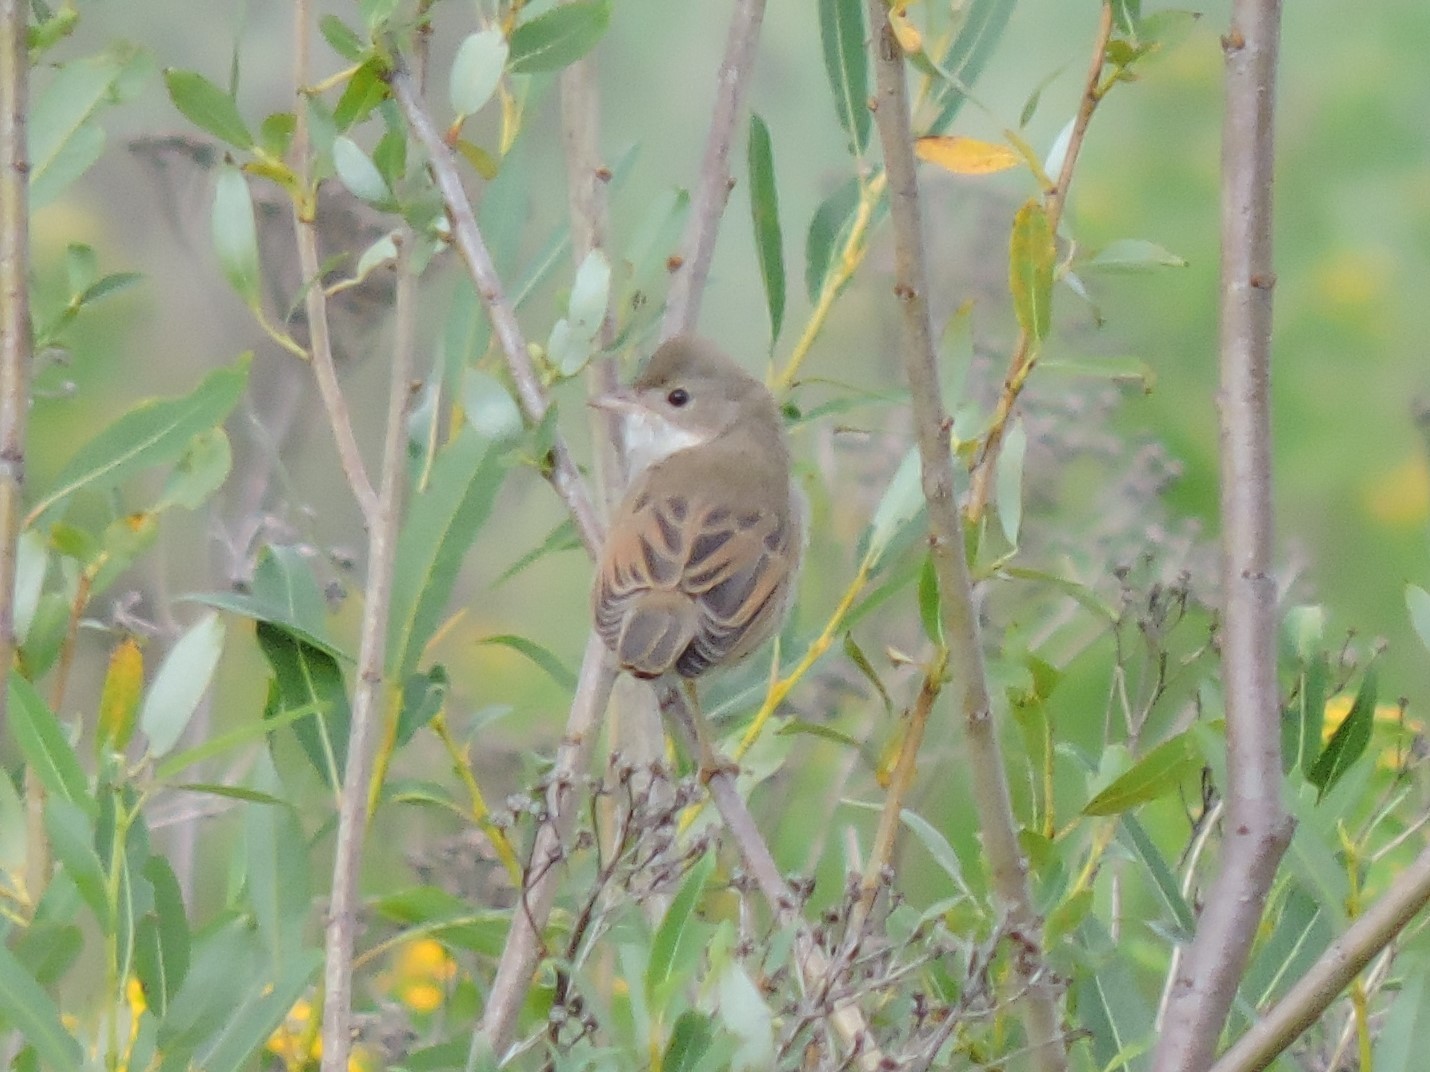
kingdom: Animalia
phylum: Chordata
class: Aves
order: Passeriformes
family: Sylviidae
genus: Sylvia
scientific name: Sylvia communis
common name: Common whitethroat
